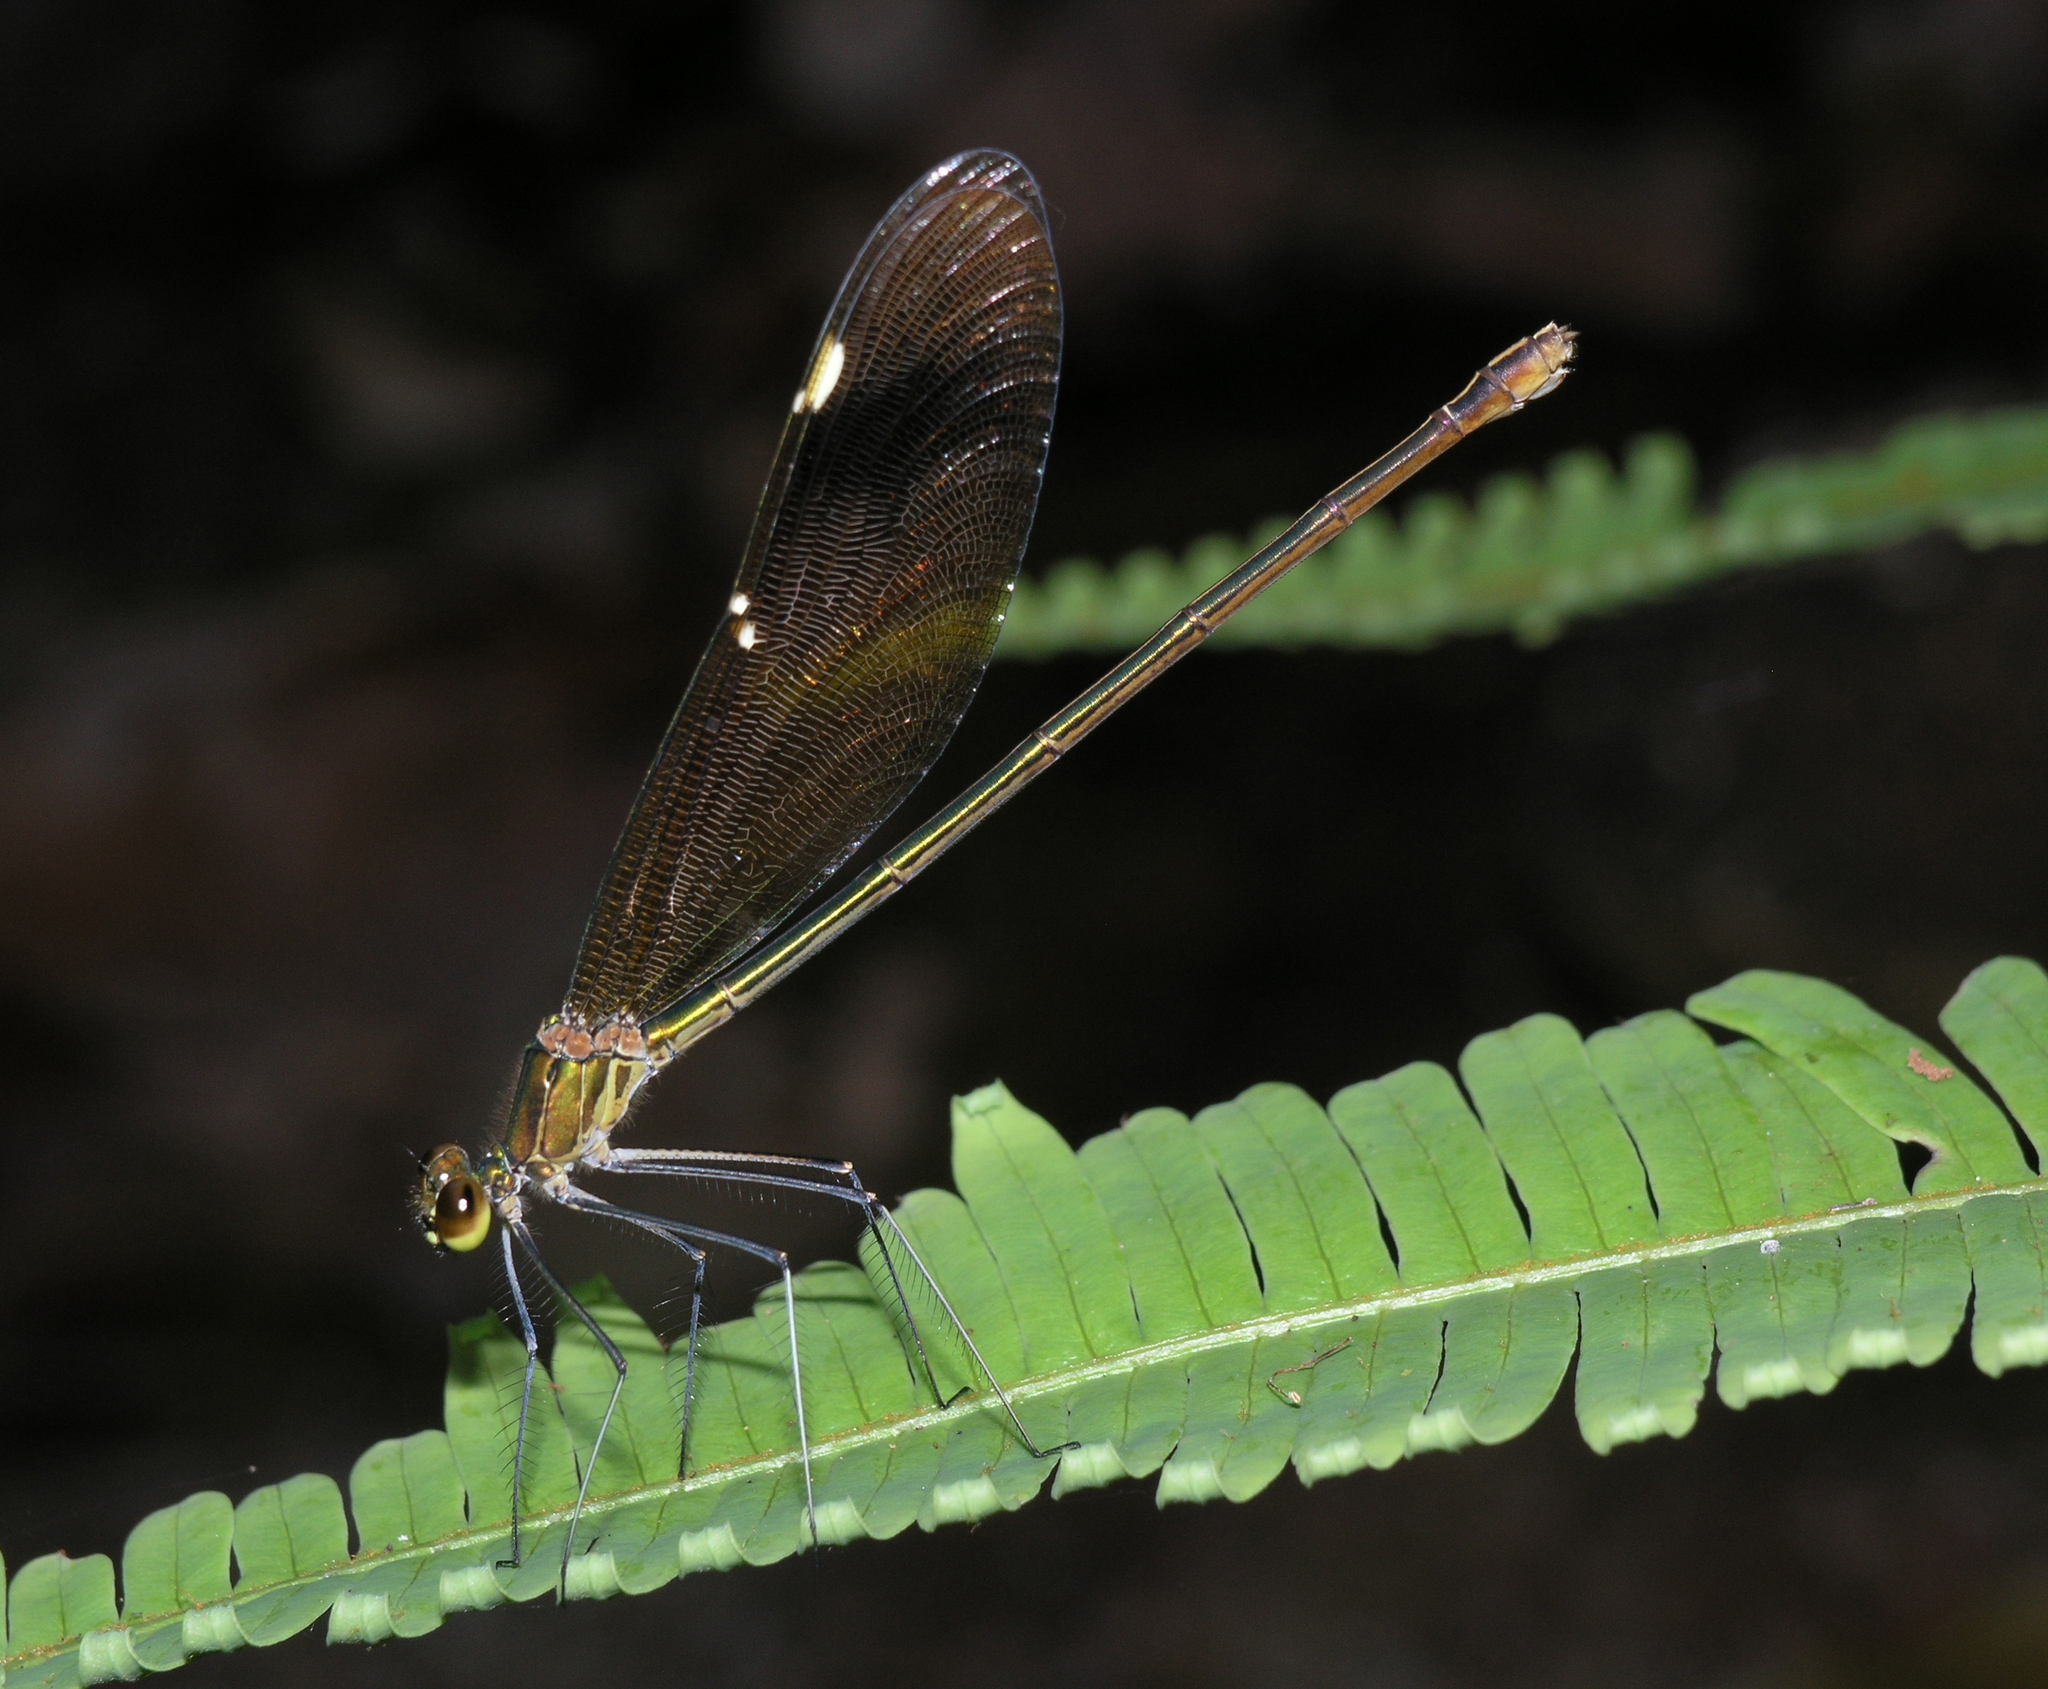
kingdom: Animalia
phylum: Arthropoda
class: Insecta
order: Odonata
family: Calopterygidae
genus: Neurobasis
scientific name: Neurobasis chinensis
